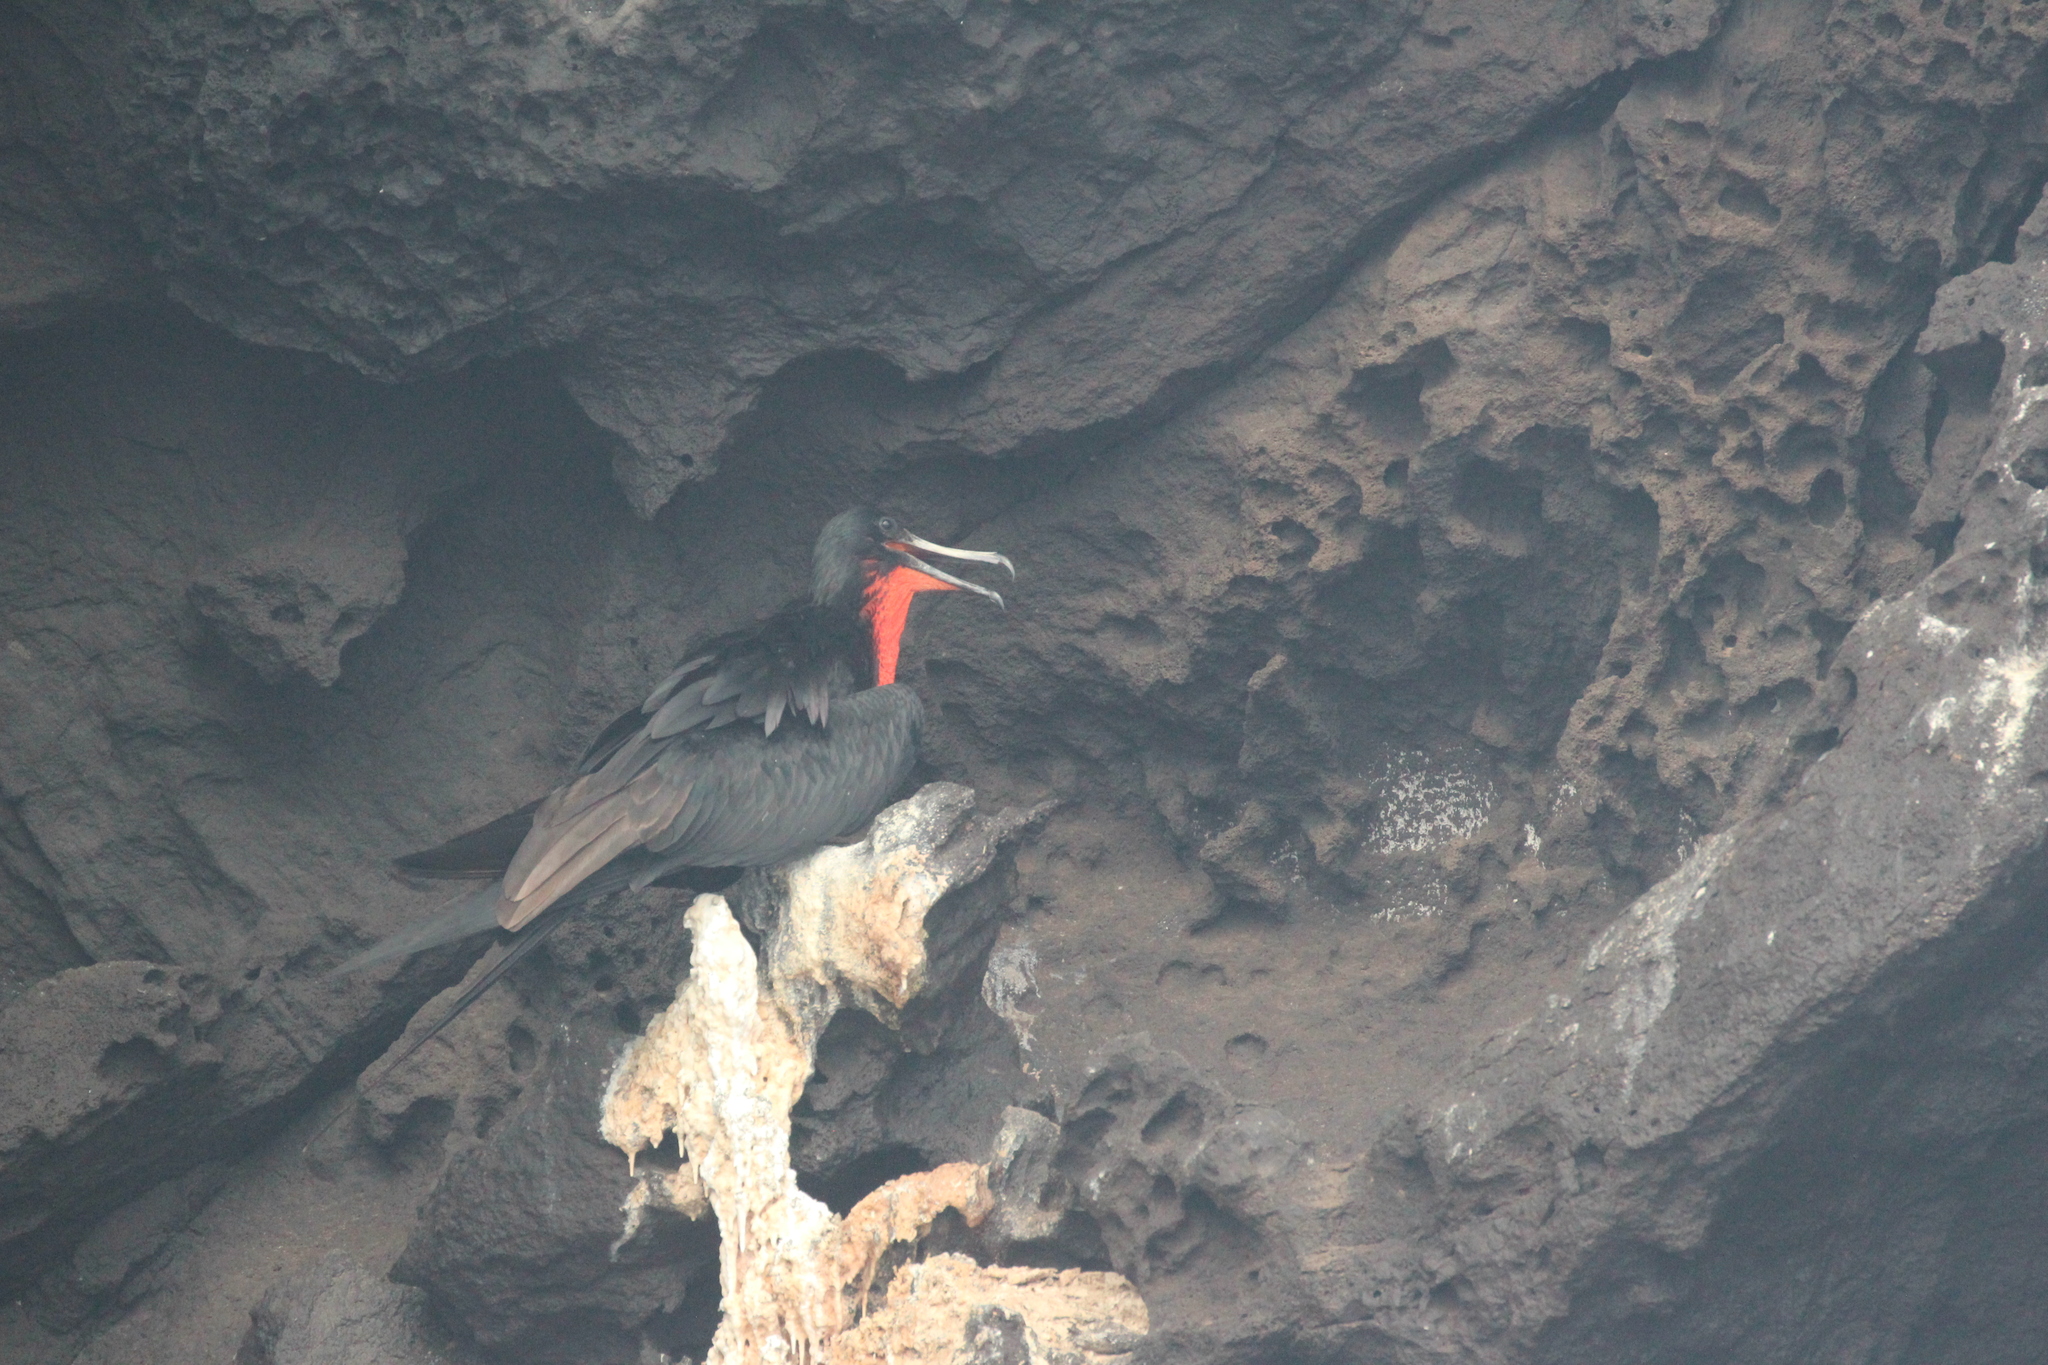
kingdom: Animalia
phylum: Chordata
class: Aves
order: Suliformes
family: Fregatidae
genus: Fregata
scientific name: Fregata magnificens
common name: Magnificent frigatebird
